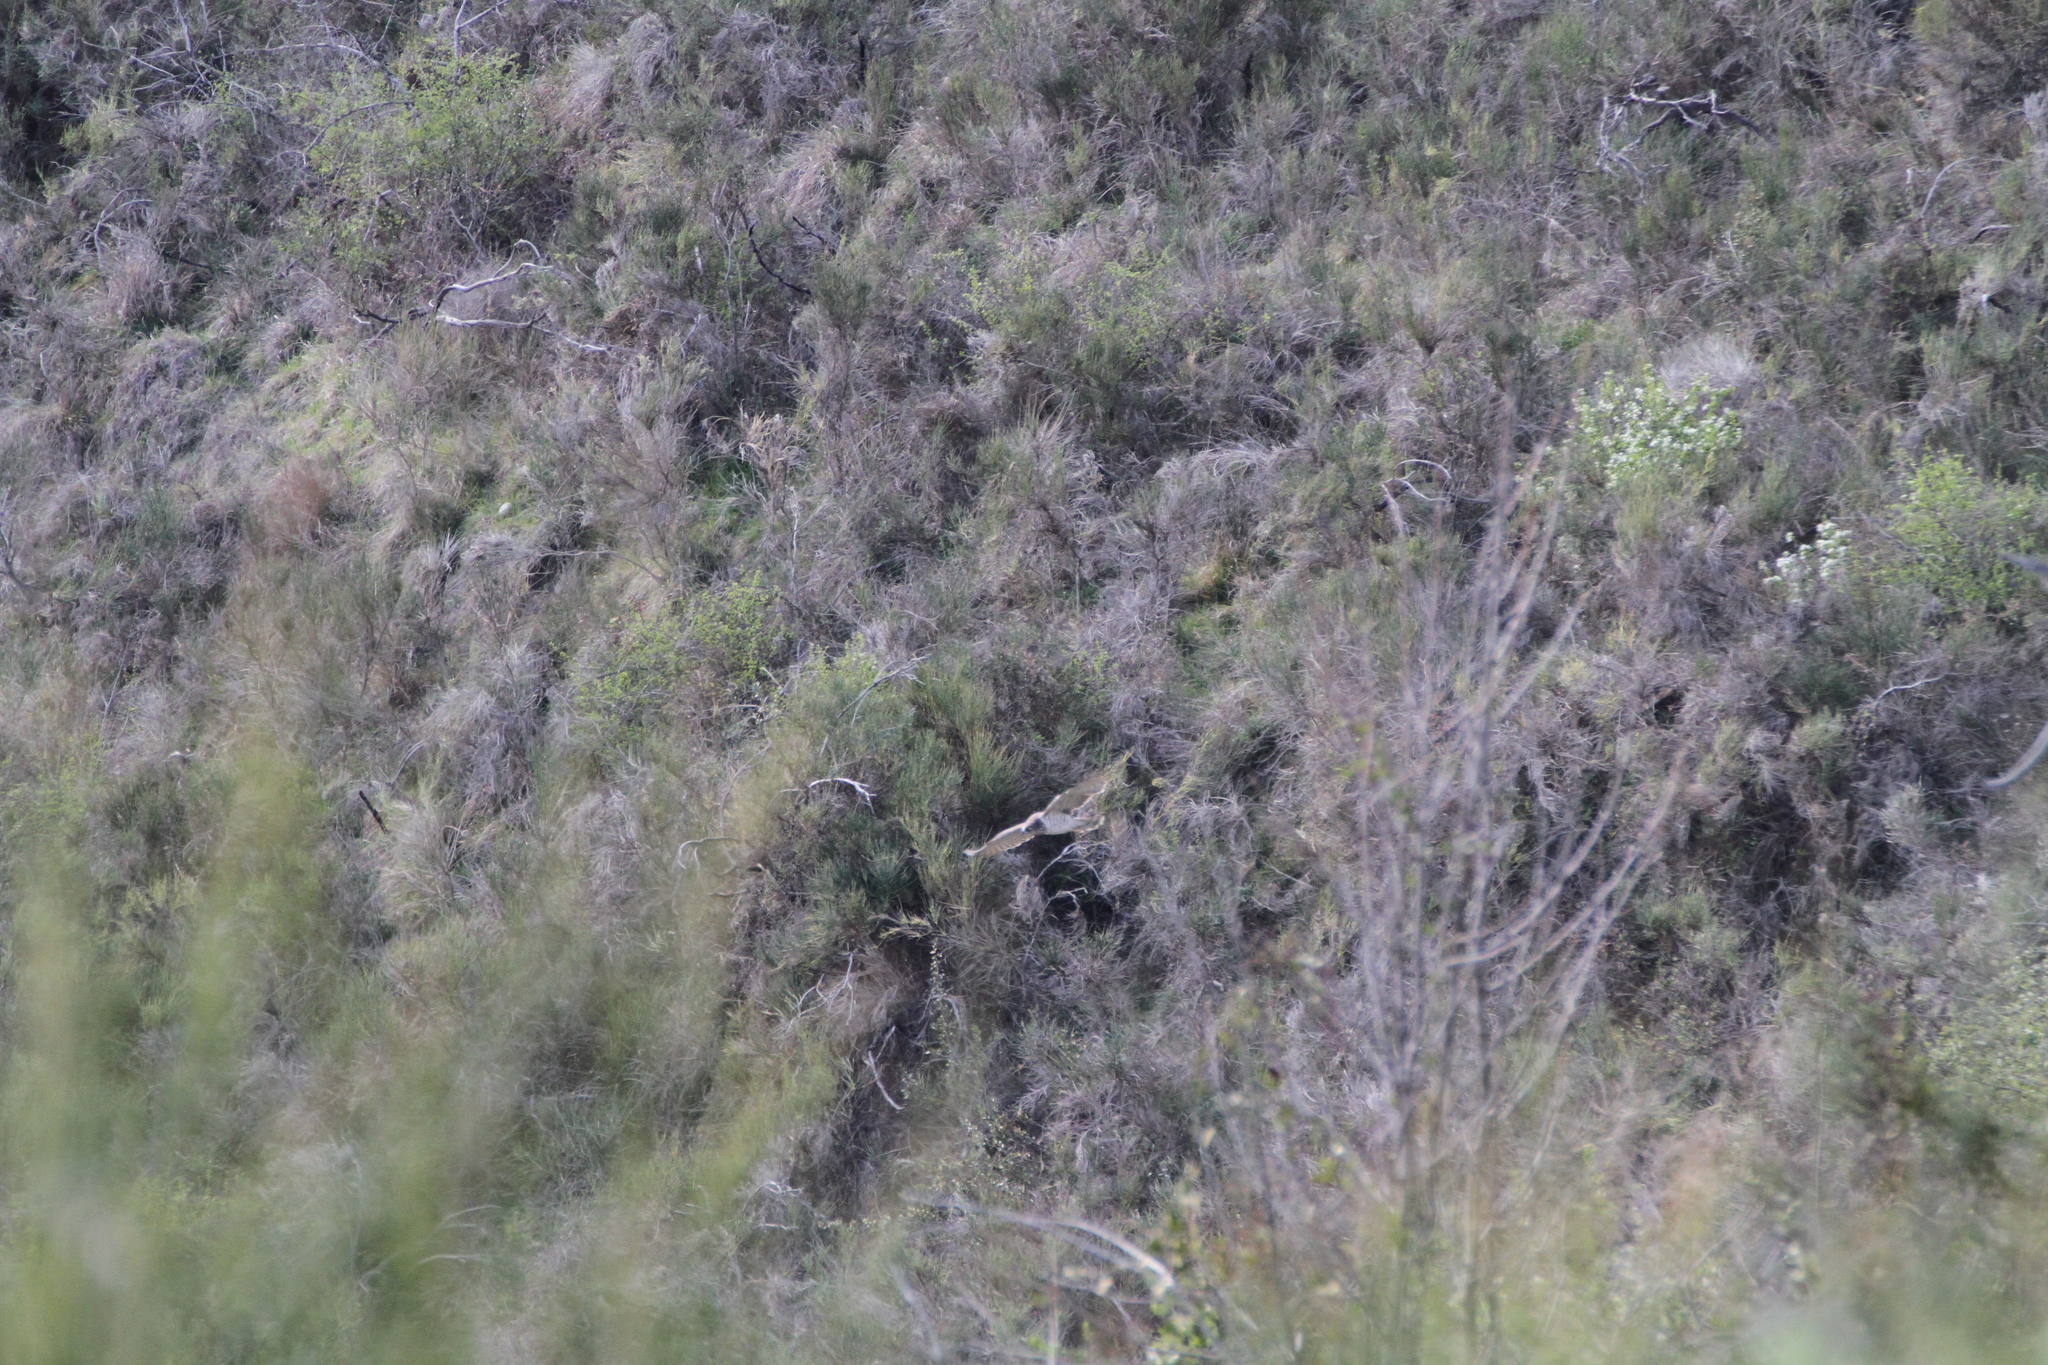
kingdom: Animalia
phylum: Chordata
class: Aves
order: Accipitriformes
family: Accipitridae
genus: Circaetus
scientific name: Circaetus gallicus
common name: Short-toed snake eagle
